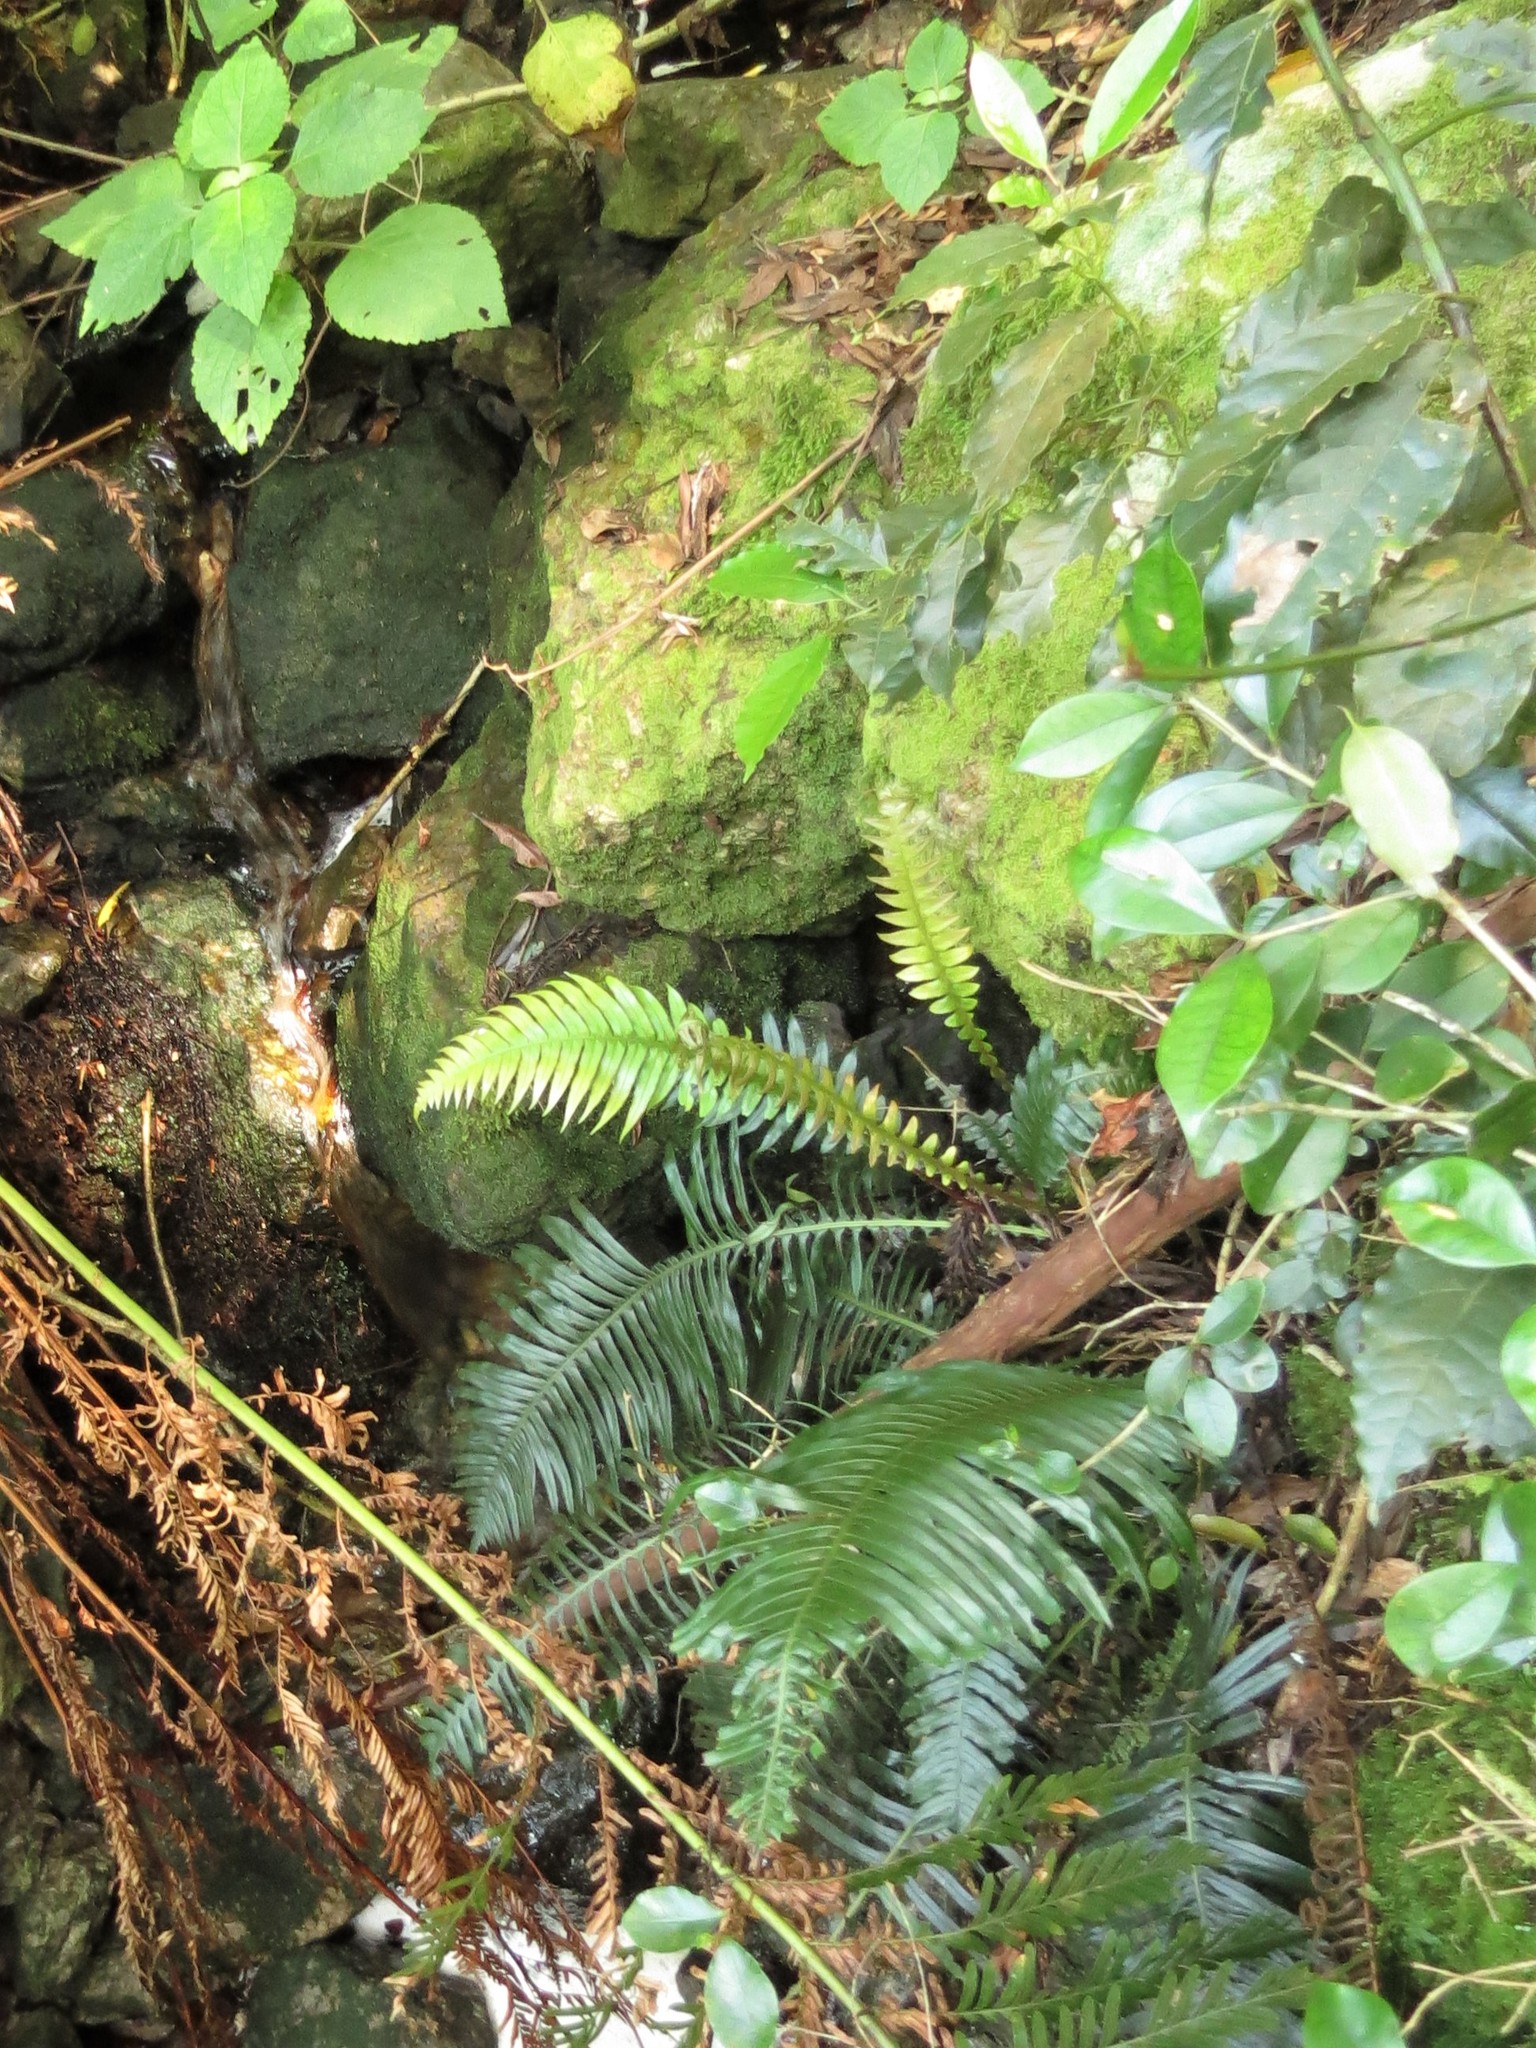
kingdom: Plantae
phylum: Tracheophyta
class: Polypodiopsida
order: Polypodiales
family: Blechnaceae
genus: Blechnum
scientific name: Blechnum punctulatum
